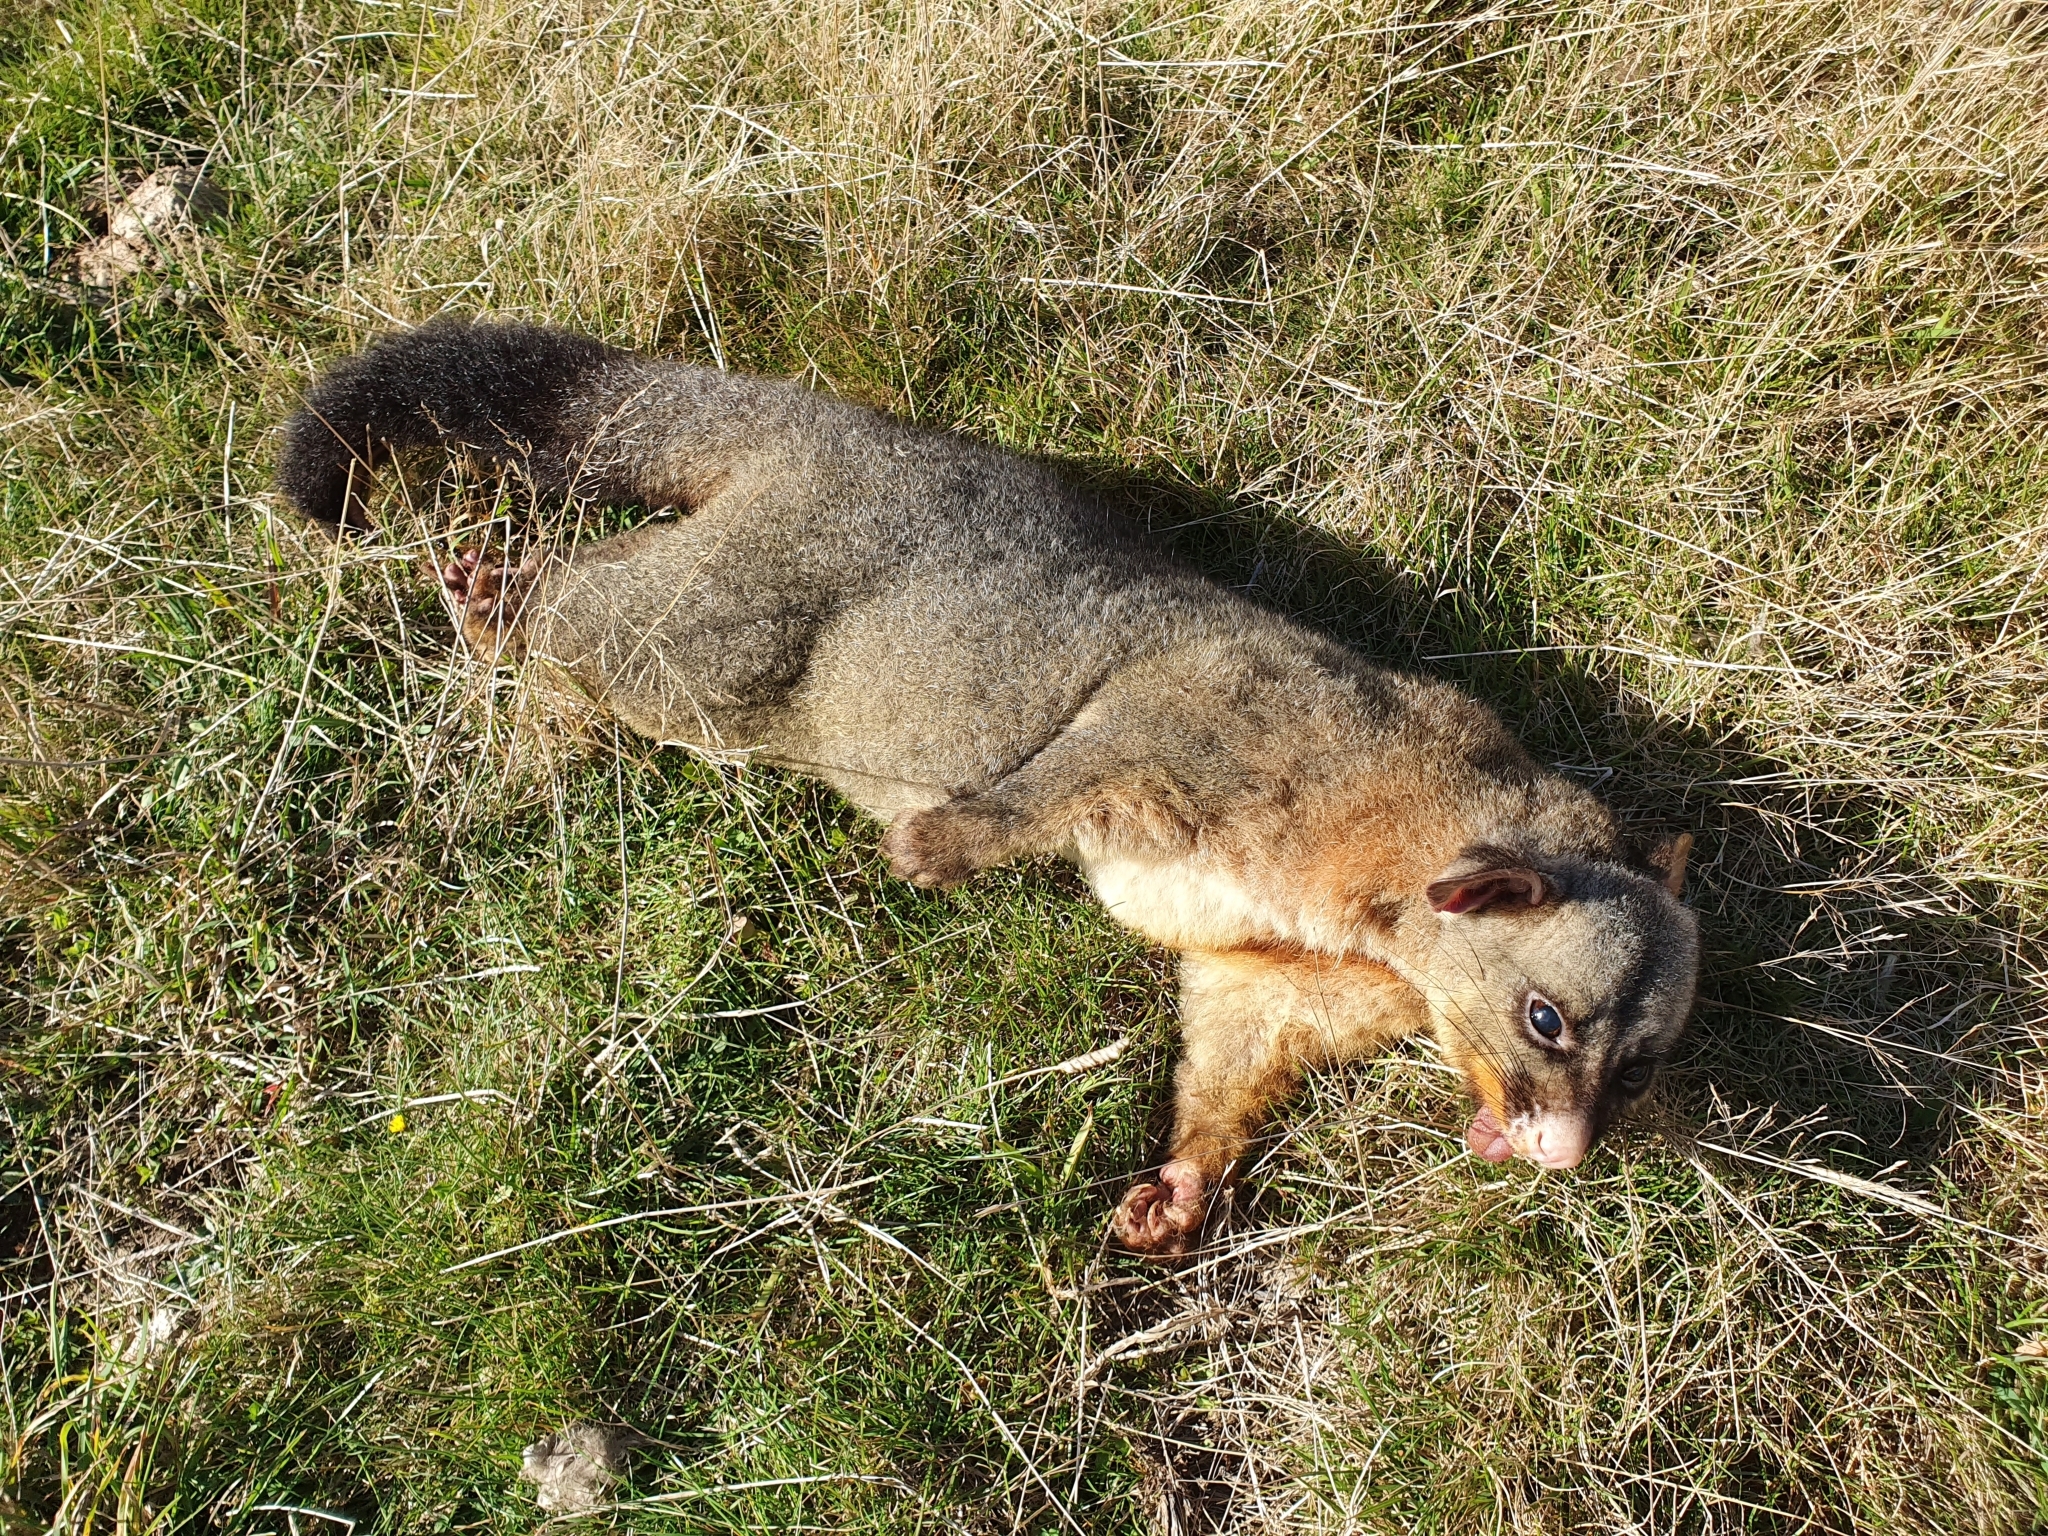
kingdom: Animalia
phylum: Chordata
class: Mammalia
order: Diprotodontia
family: Phalangeridae
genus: Trichosurus
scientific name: Trichosurus vulpecula
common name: Common brushtail
